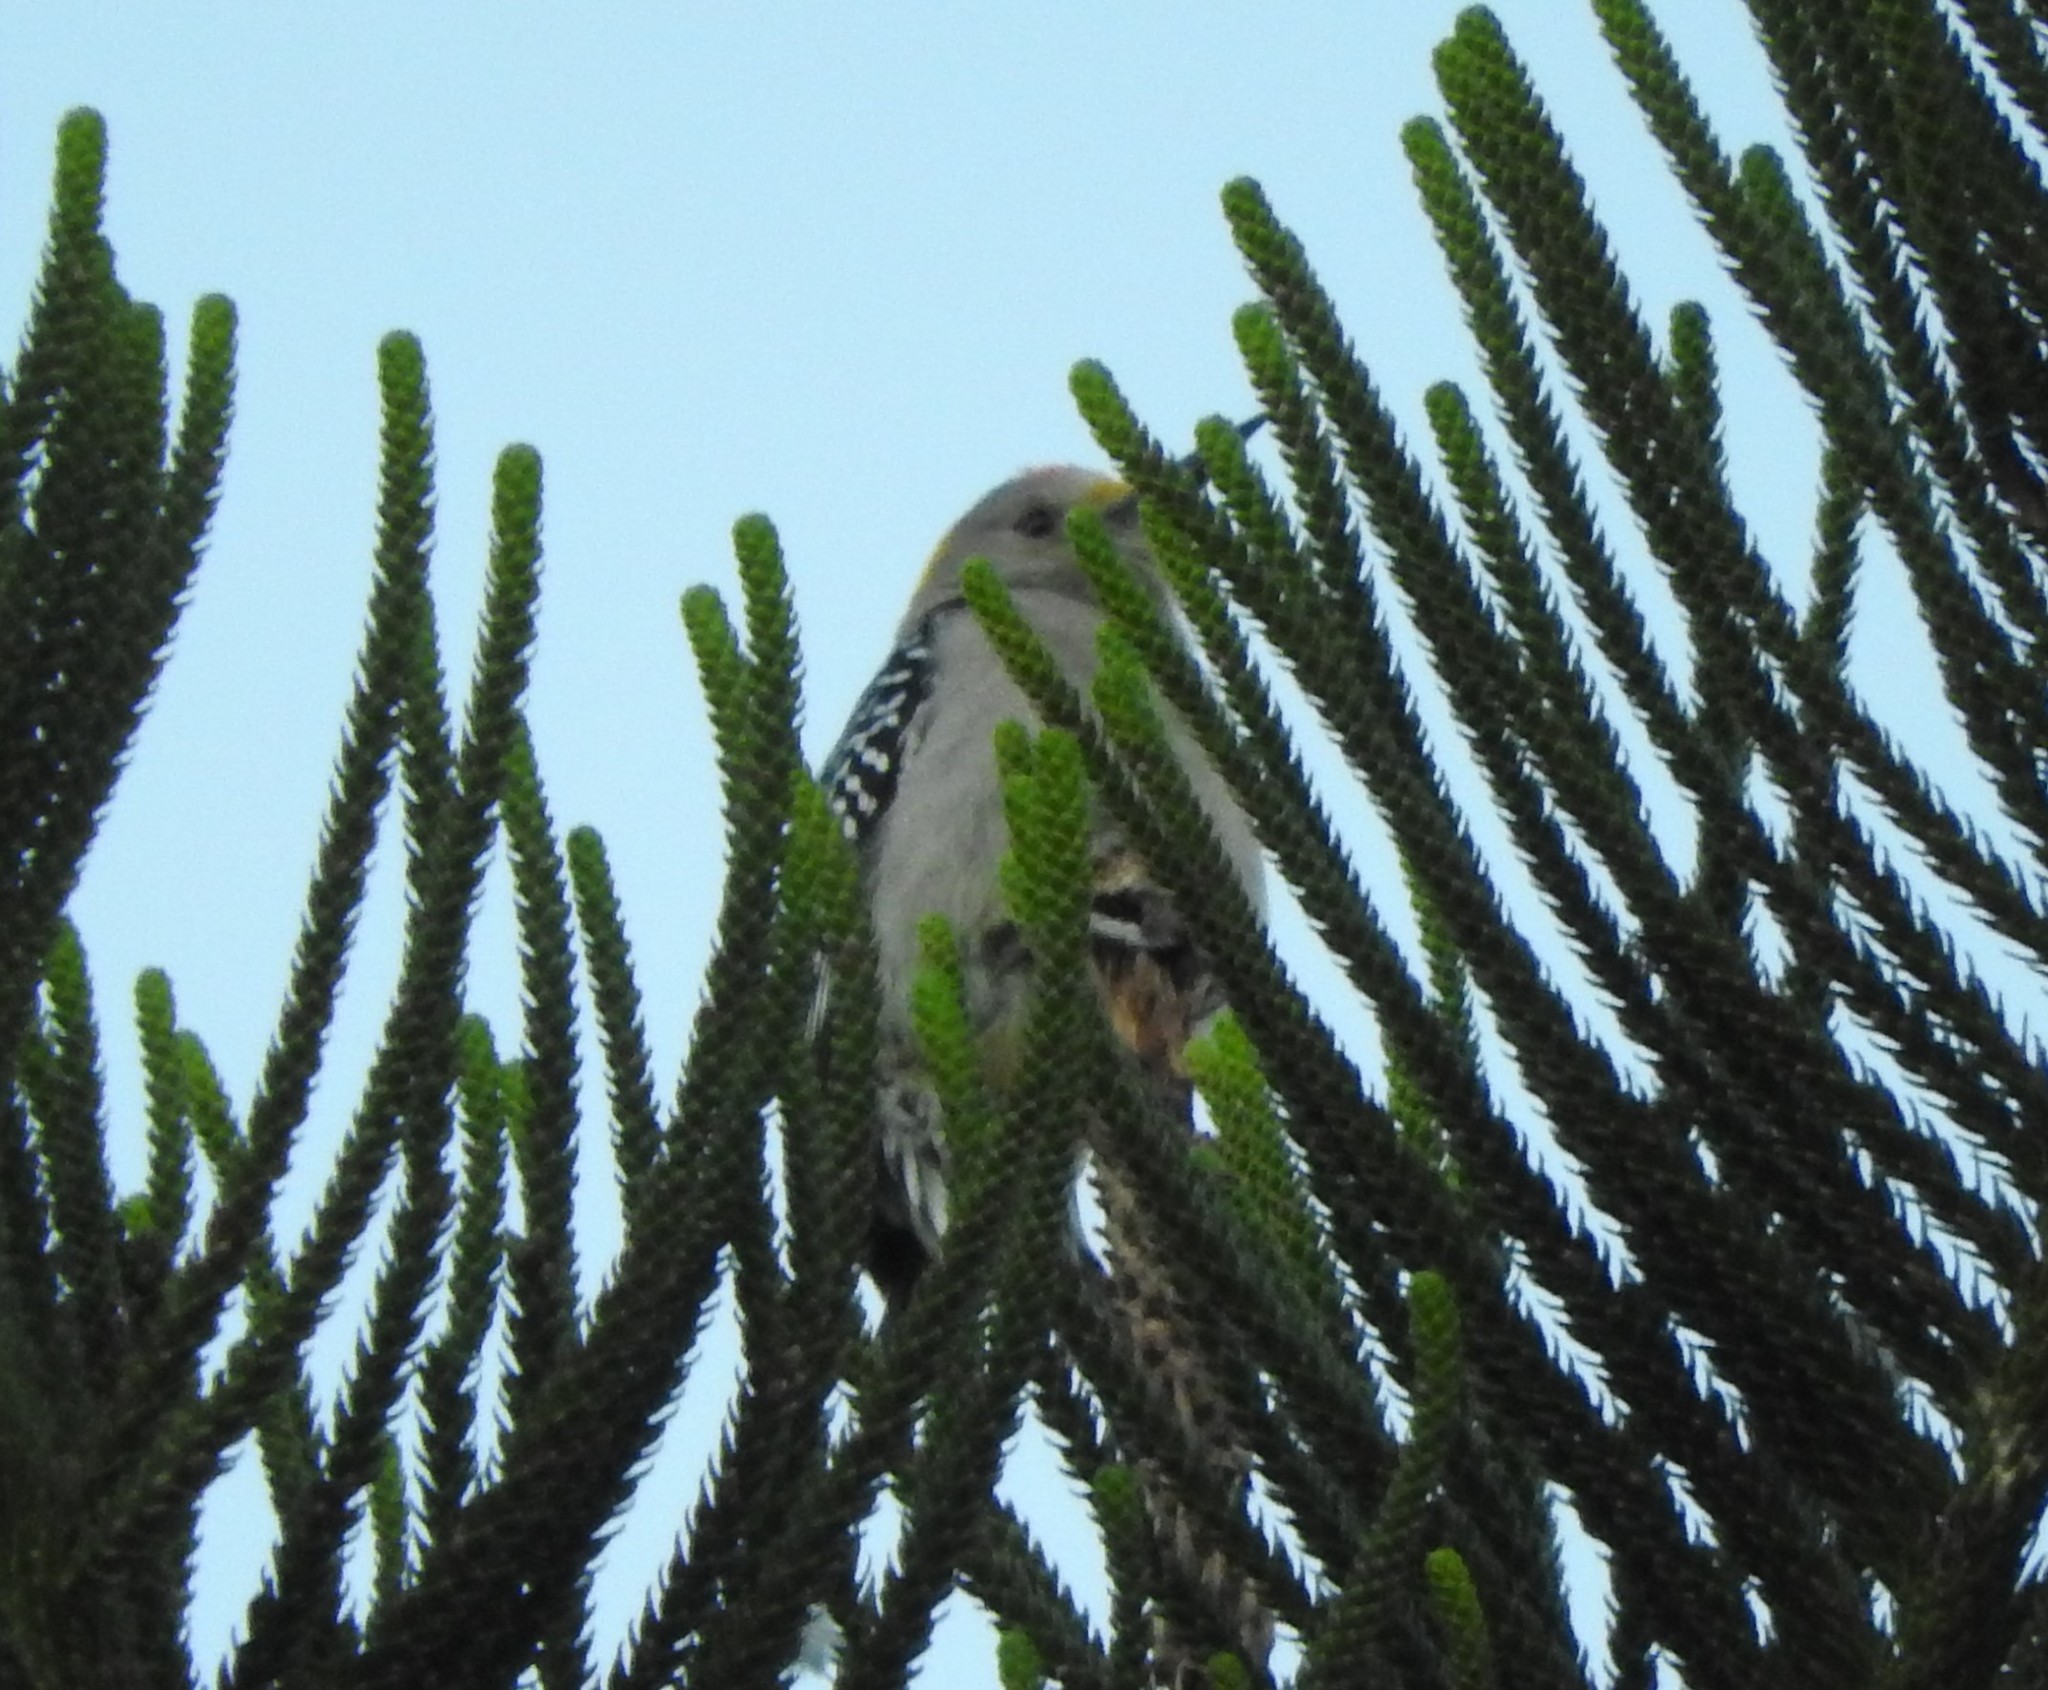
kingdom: Animalia
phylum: Chordata
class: Aves
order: Piciformes
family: Picidae
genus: Melanerpes
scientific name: Melanerpes aurifrons
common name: Golden-fronted woodpecker
